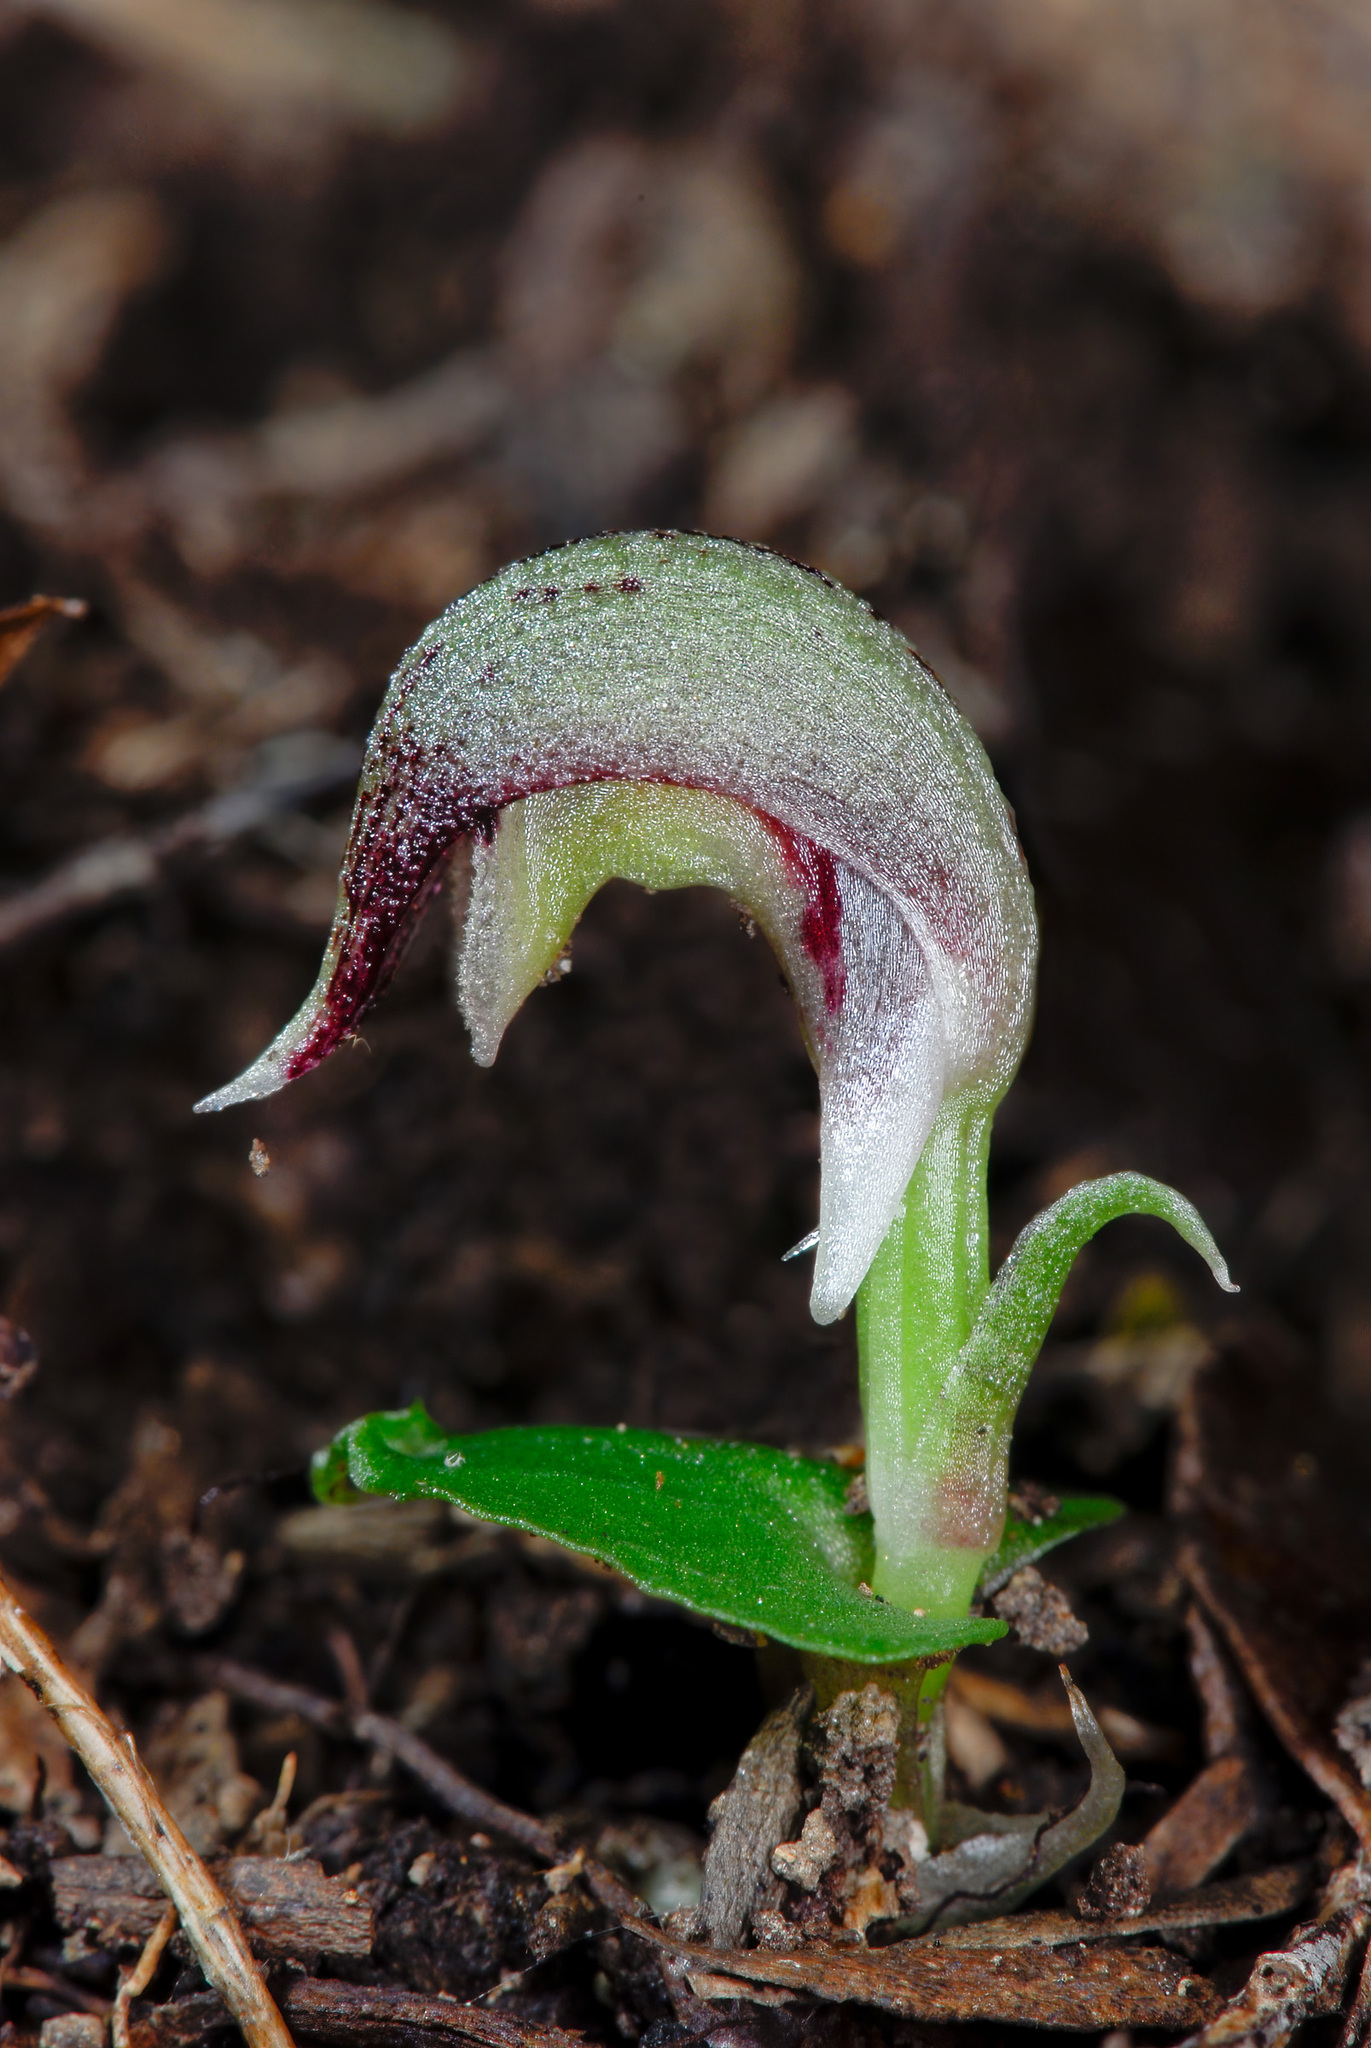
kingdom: Plantae
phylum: Tracheophyta
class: Liliopsida
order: Asparagales
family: Orchidaceae
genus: Corybas
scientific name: Corybas cheesemanii
